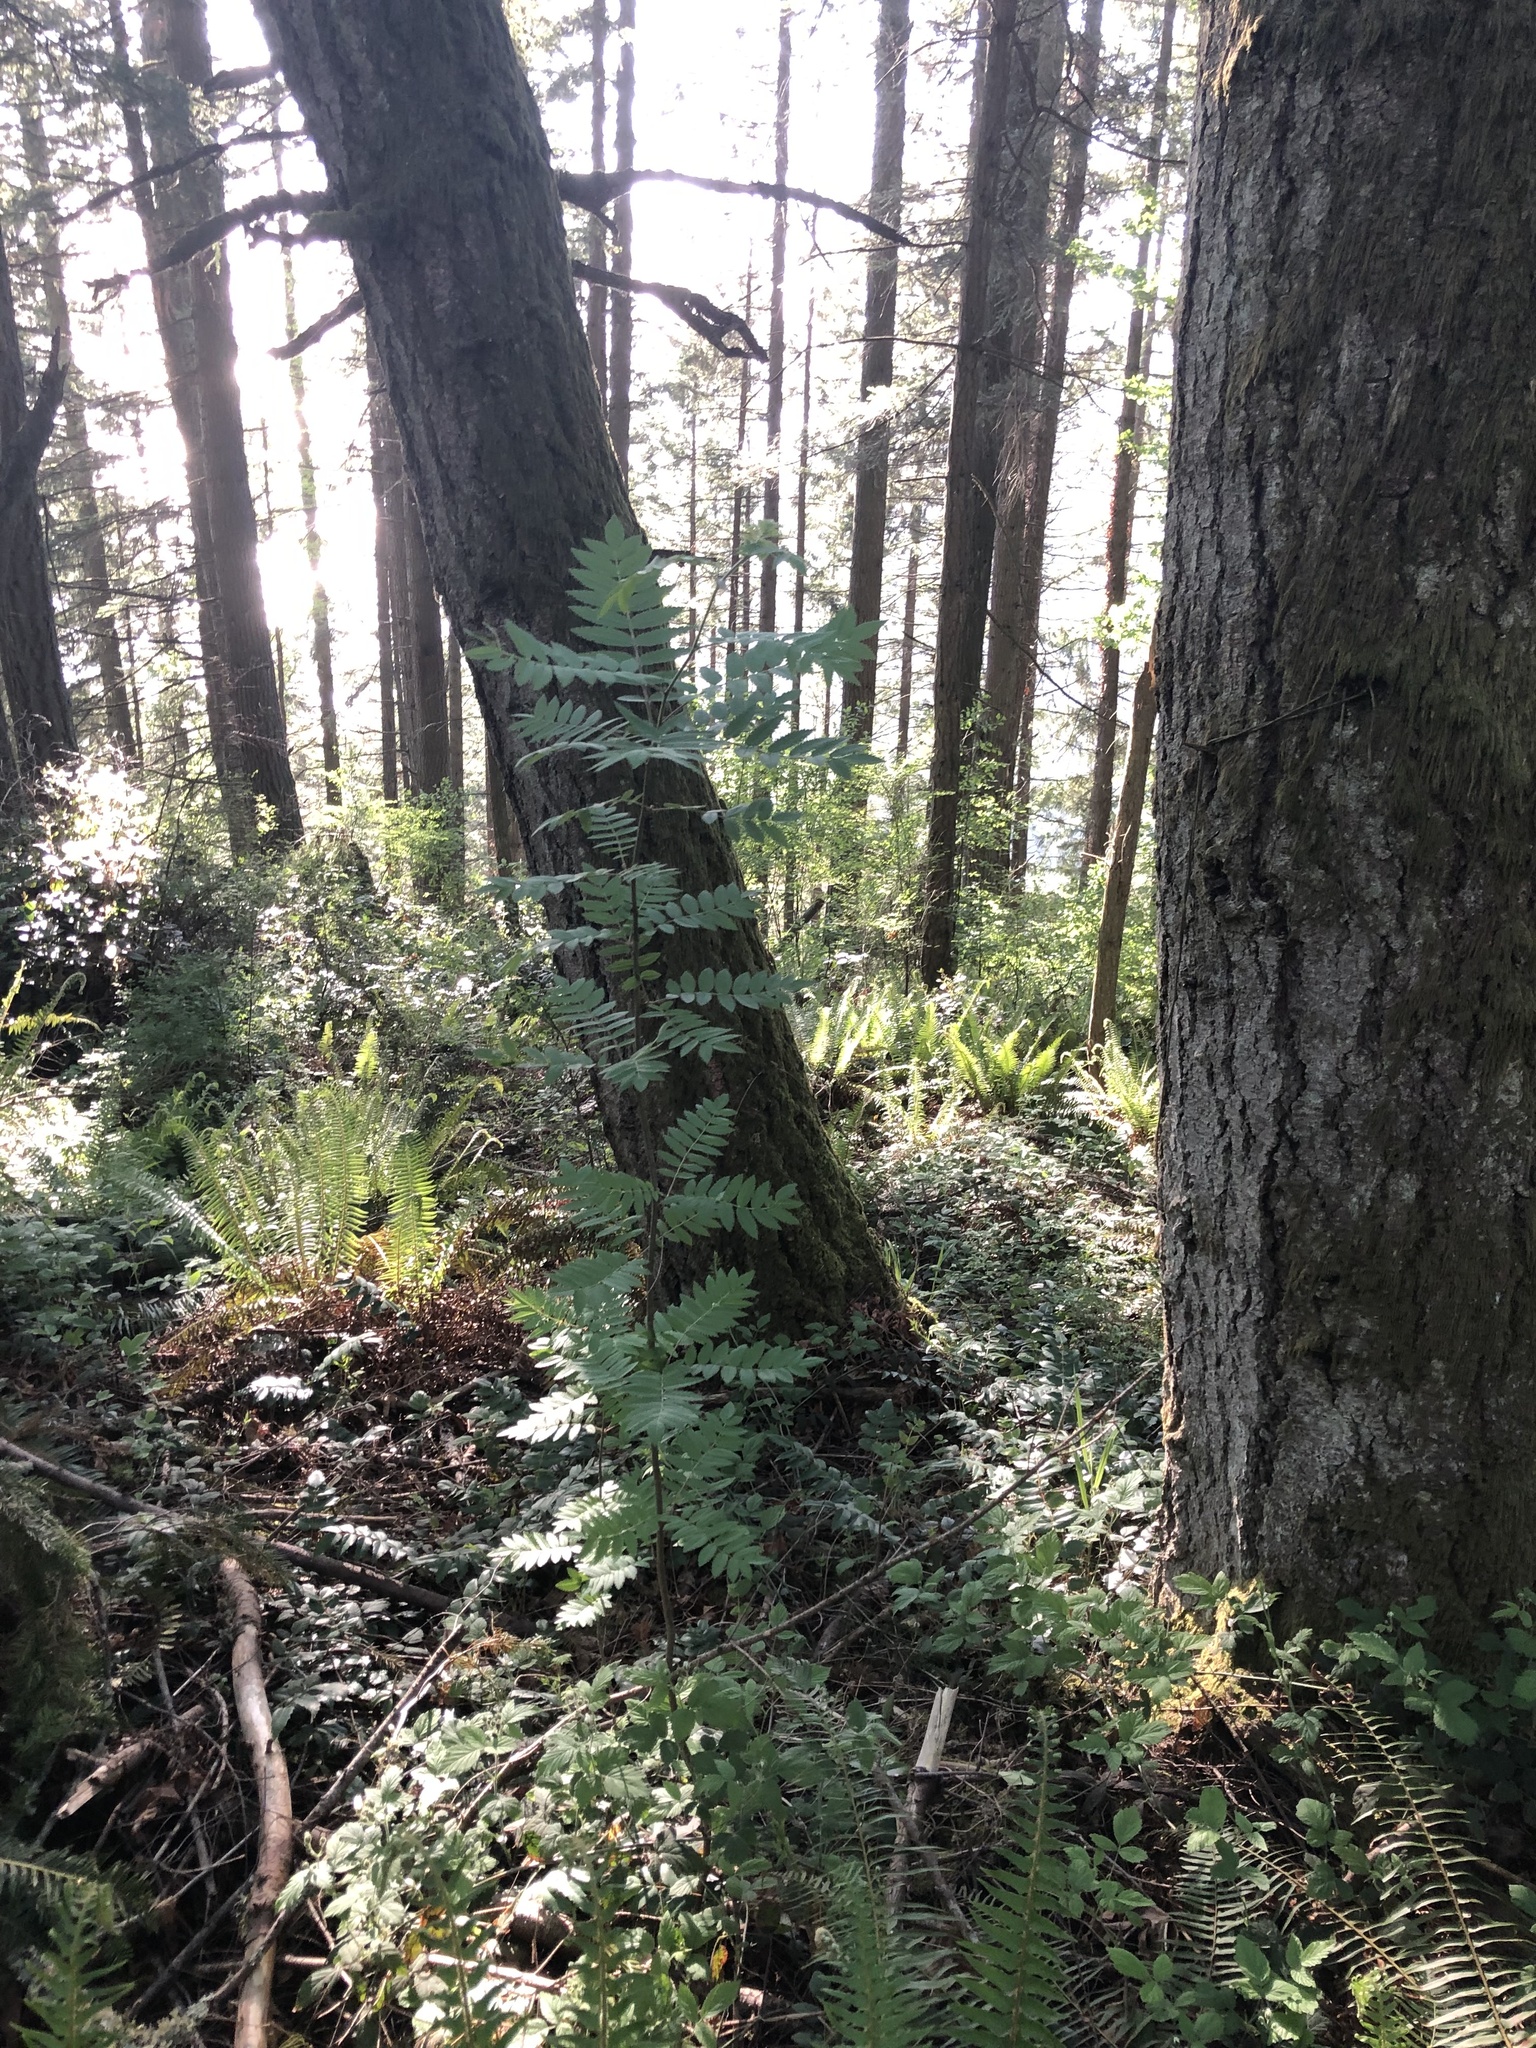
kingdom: Plantae
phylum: Tracheophyta
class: Magnoliopsida
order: Rosales
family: Rosaceae
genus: Sorbus
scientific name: Sorbus aucuparia
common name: Rowan
